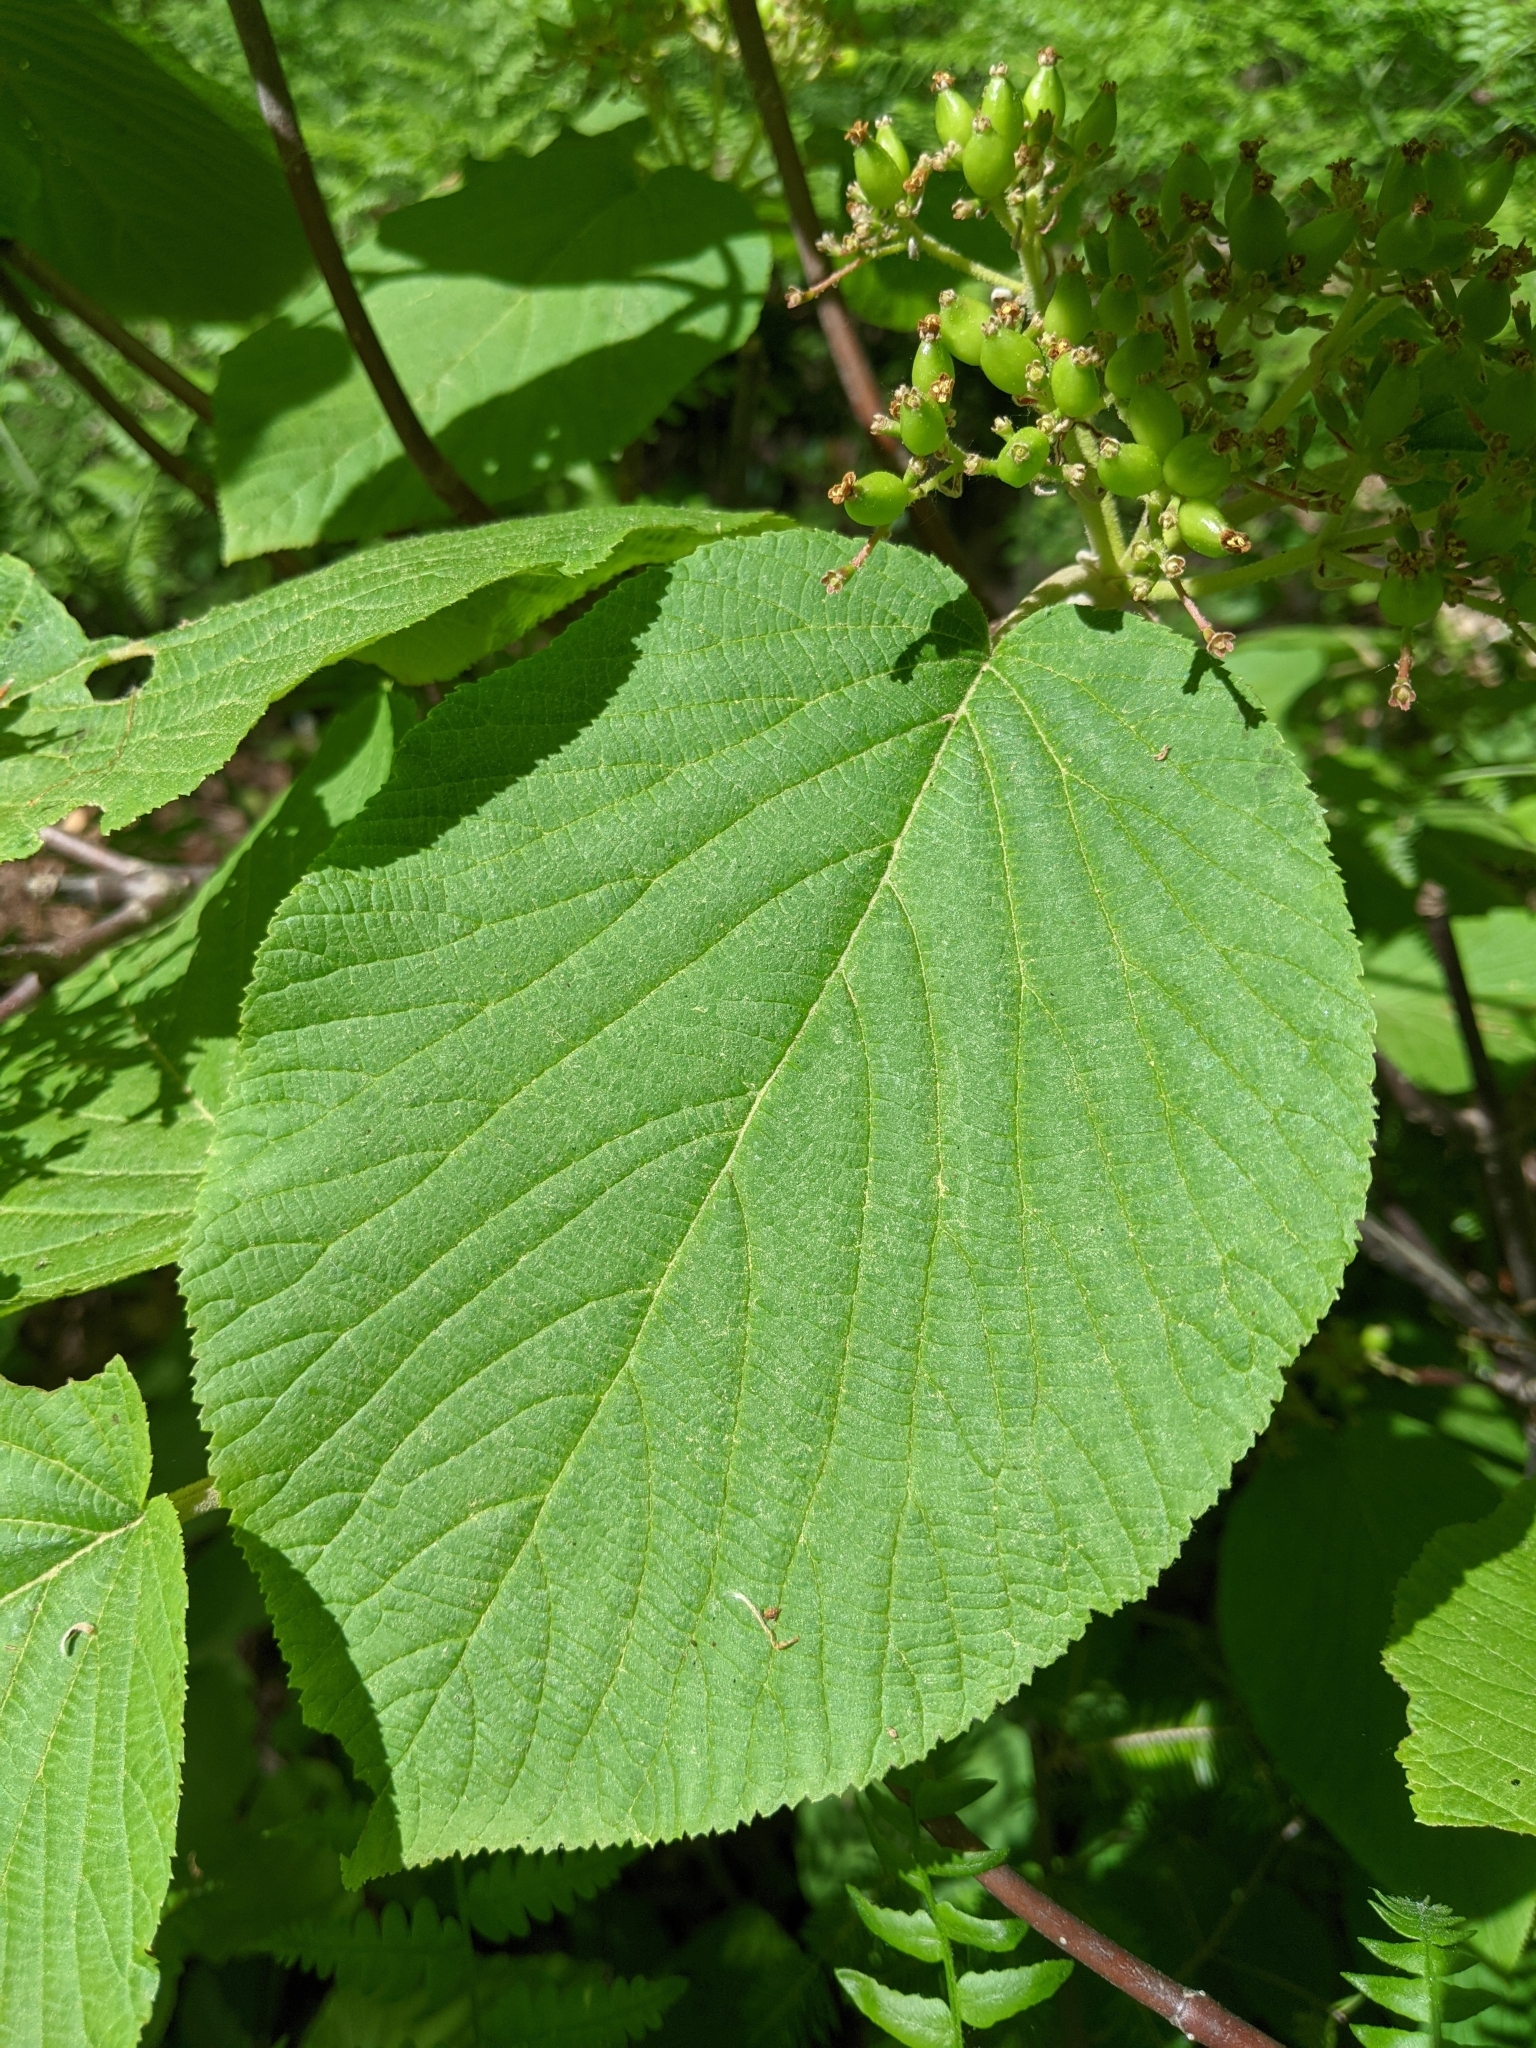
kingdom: Plantae
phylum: Tracheophyta
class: Magnoliopsida
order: Dipsacales
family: Viburnaceae
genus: Viburnum
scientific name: Viburnum lantanoides
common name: Hobblebush
